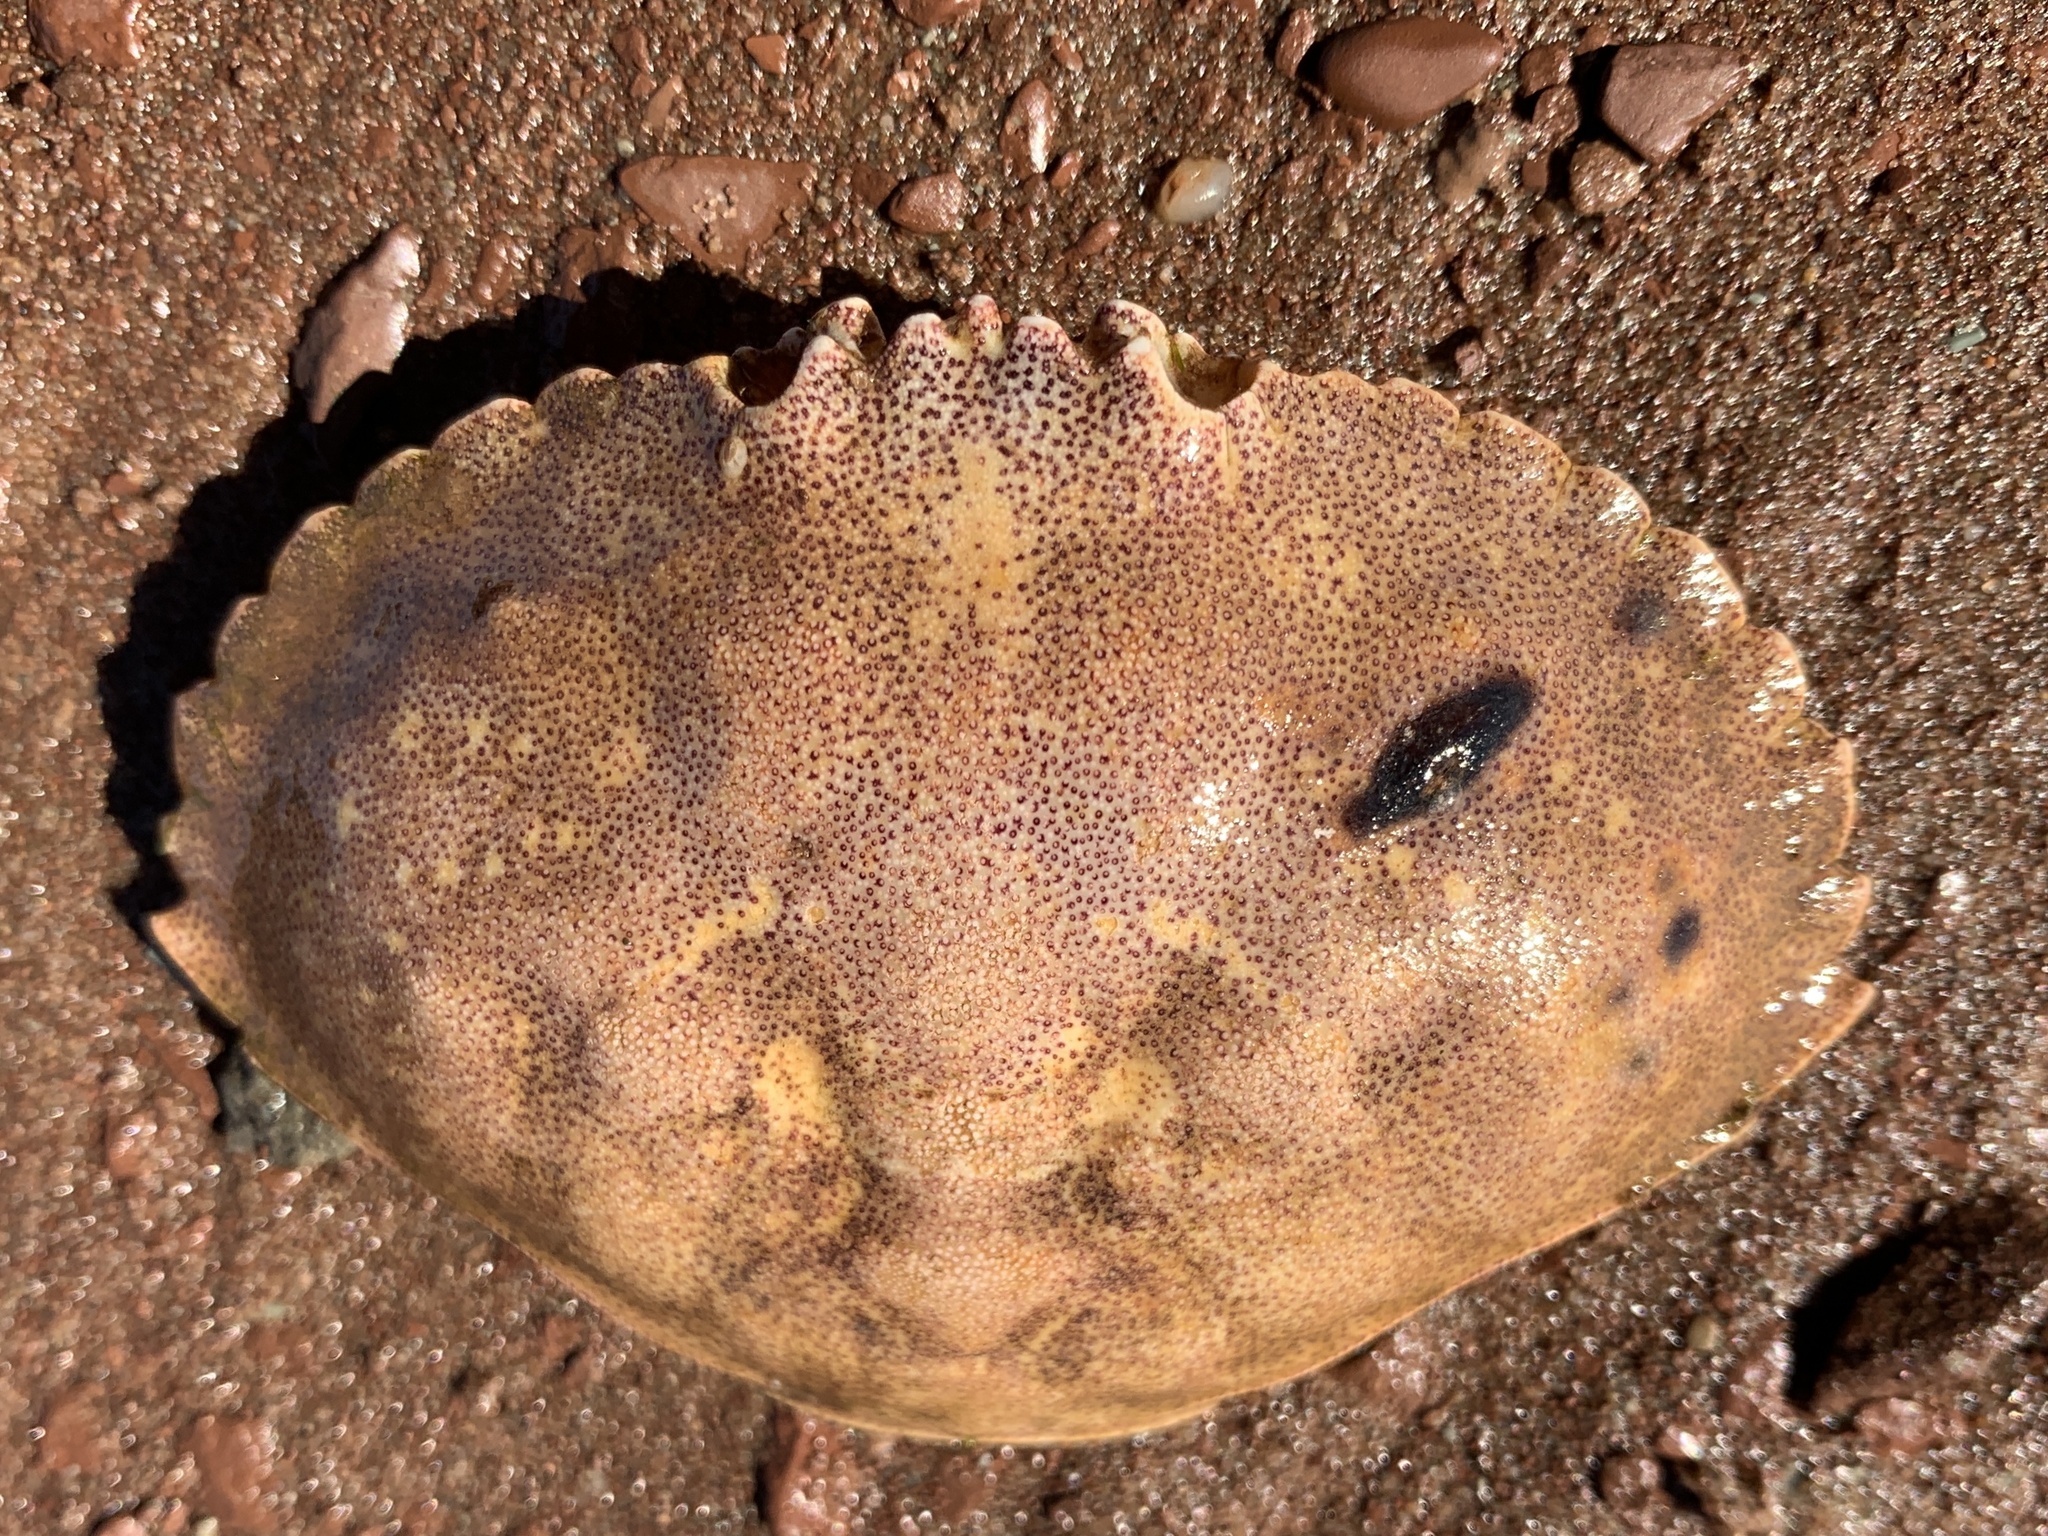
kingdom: Animalia
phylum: Arthropoda
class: Malacostraca
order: Decapoda
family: Cancridae
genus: Cancer
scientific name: Cancer irroratus
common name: Atlantic rock crab
